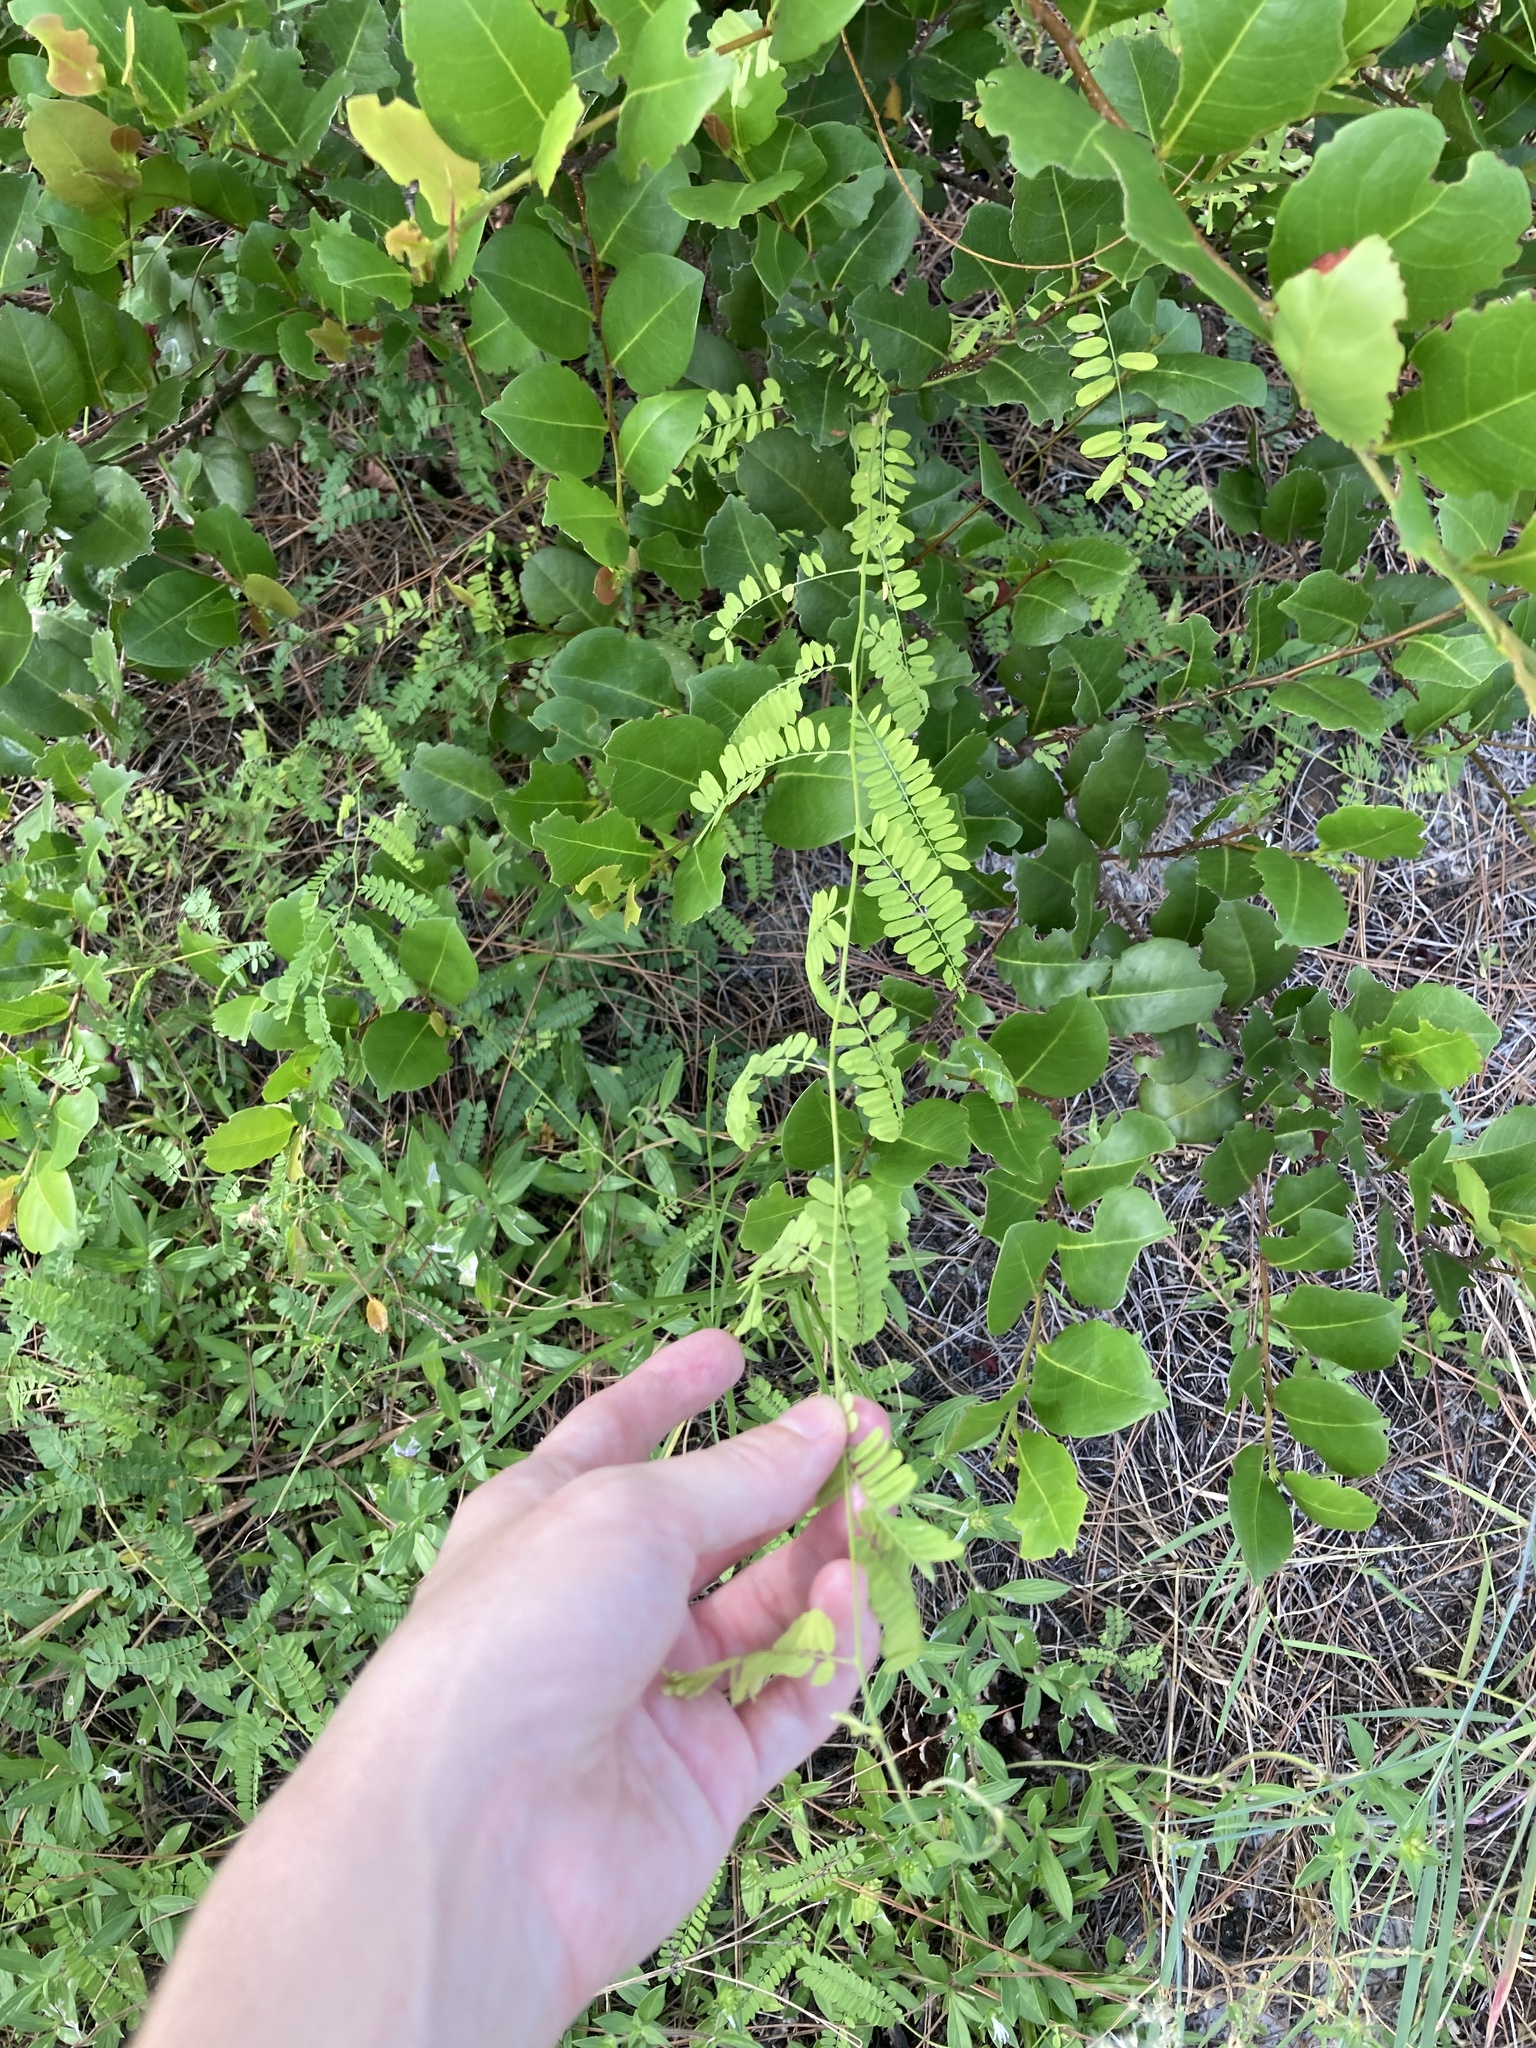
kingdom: Plantae
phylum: Tracheophyta
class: Magnoliopsida
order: Fabales
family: Fabaceae
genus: Abrus
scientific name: Abrus precatorius
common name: Rosarypea
